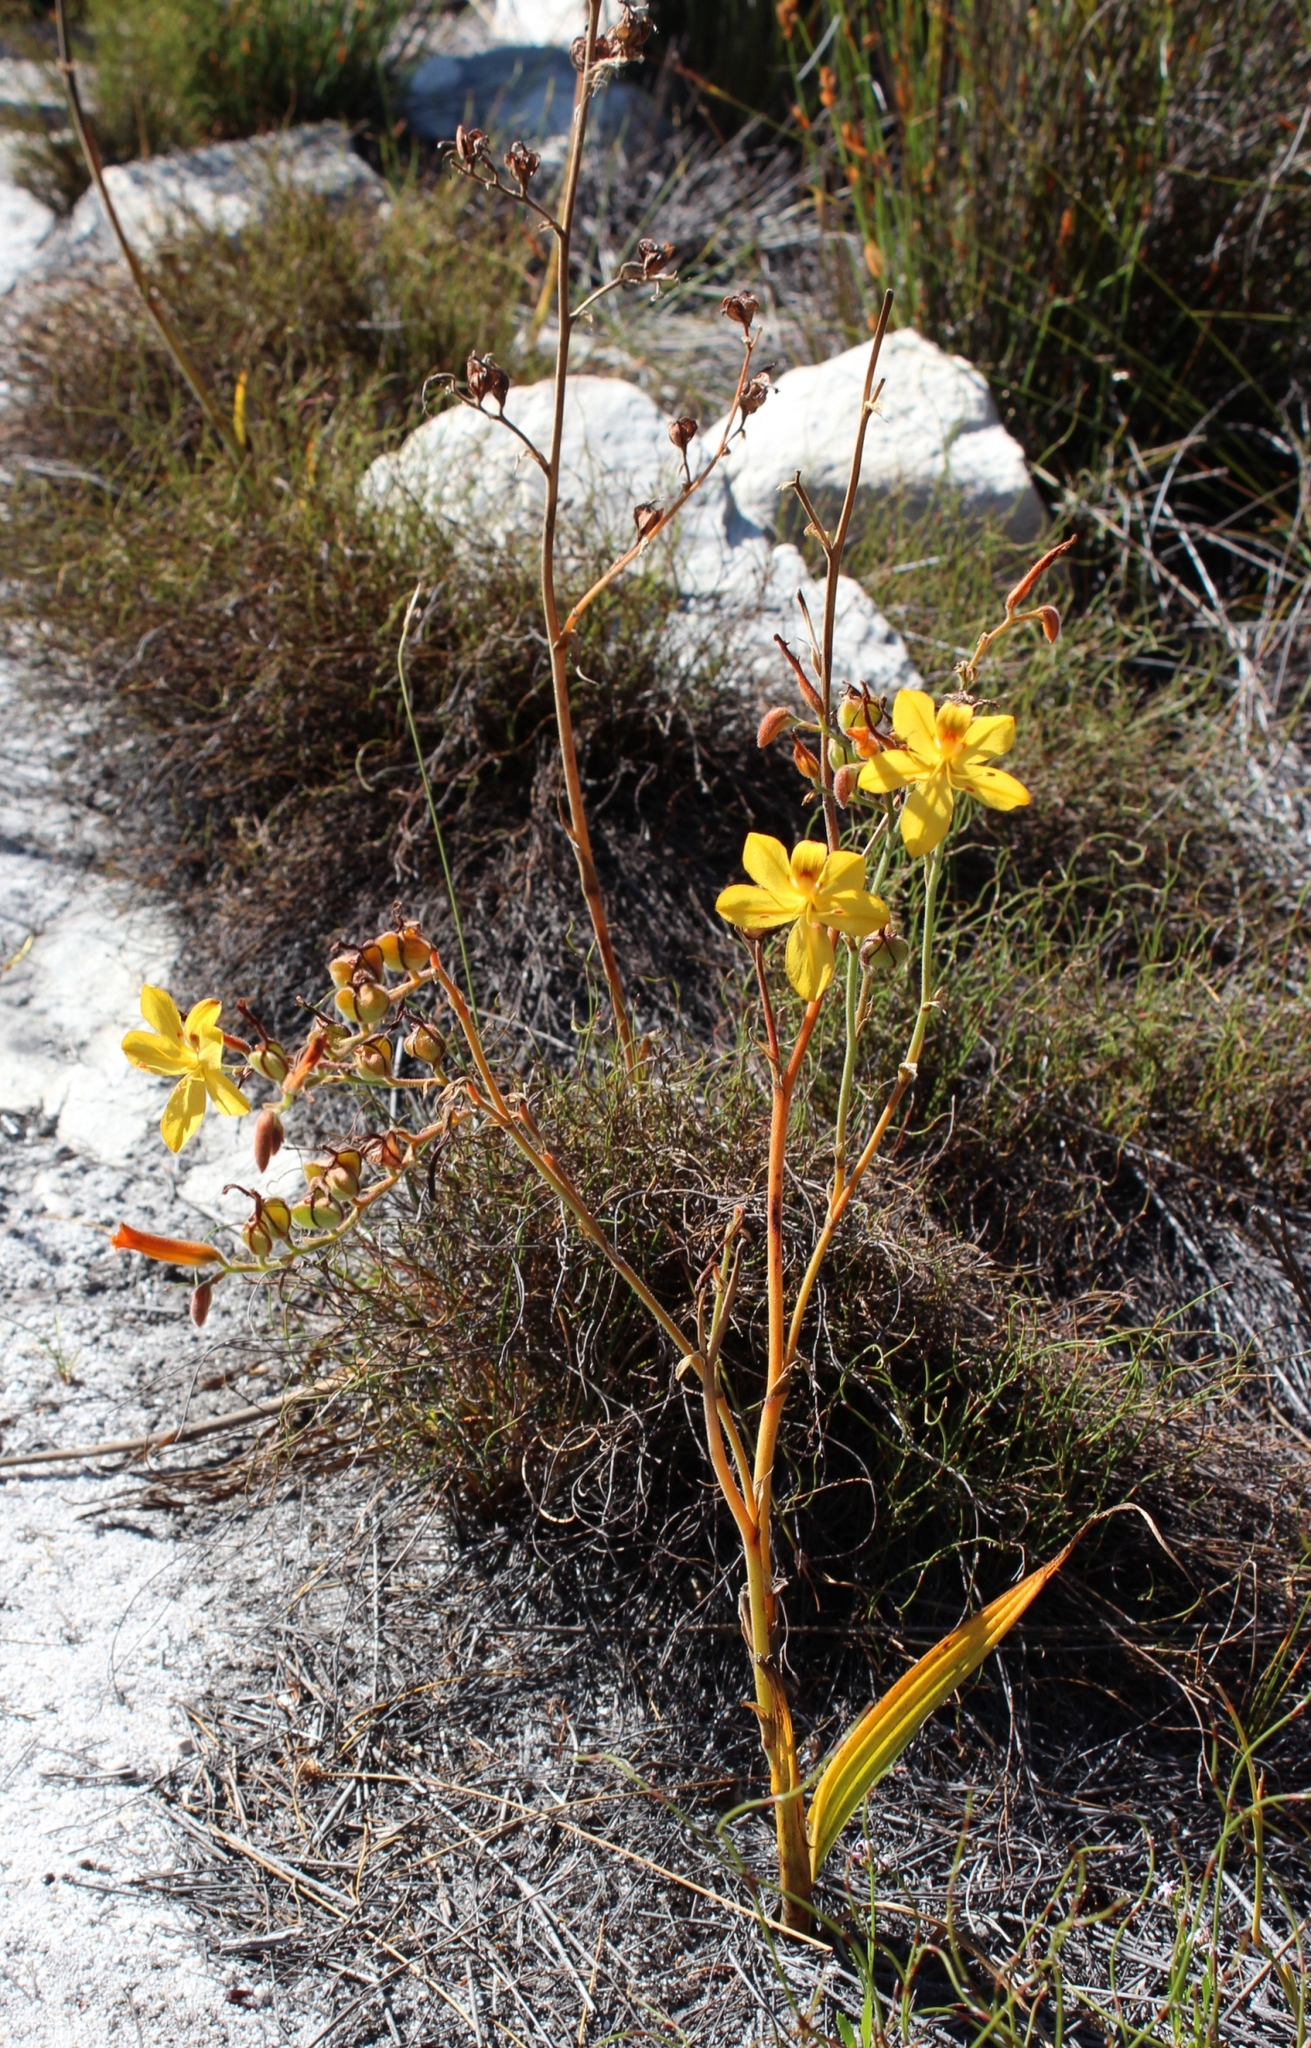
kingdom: Plantae
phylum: Tracheophyta
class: Liliopsida
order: Commelinales
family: Haemodoraceae
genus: Wachendorfia
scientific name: Wachendorfia paniculata
